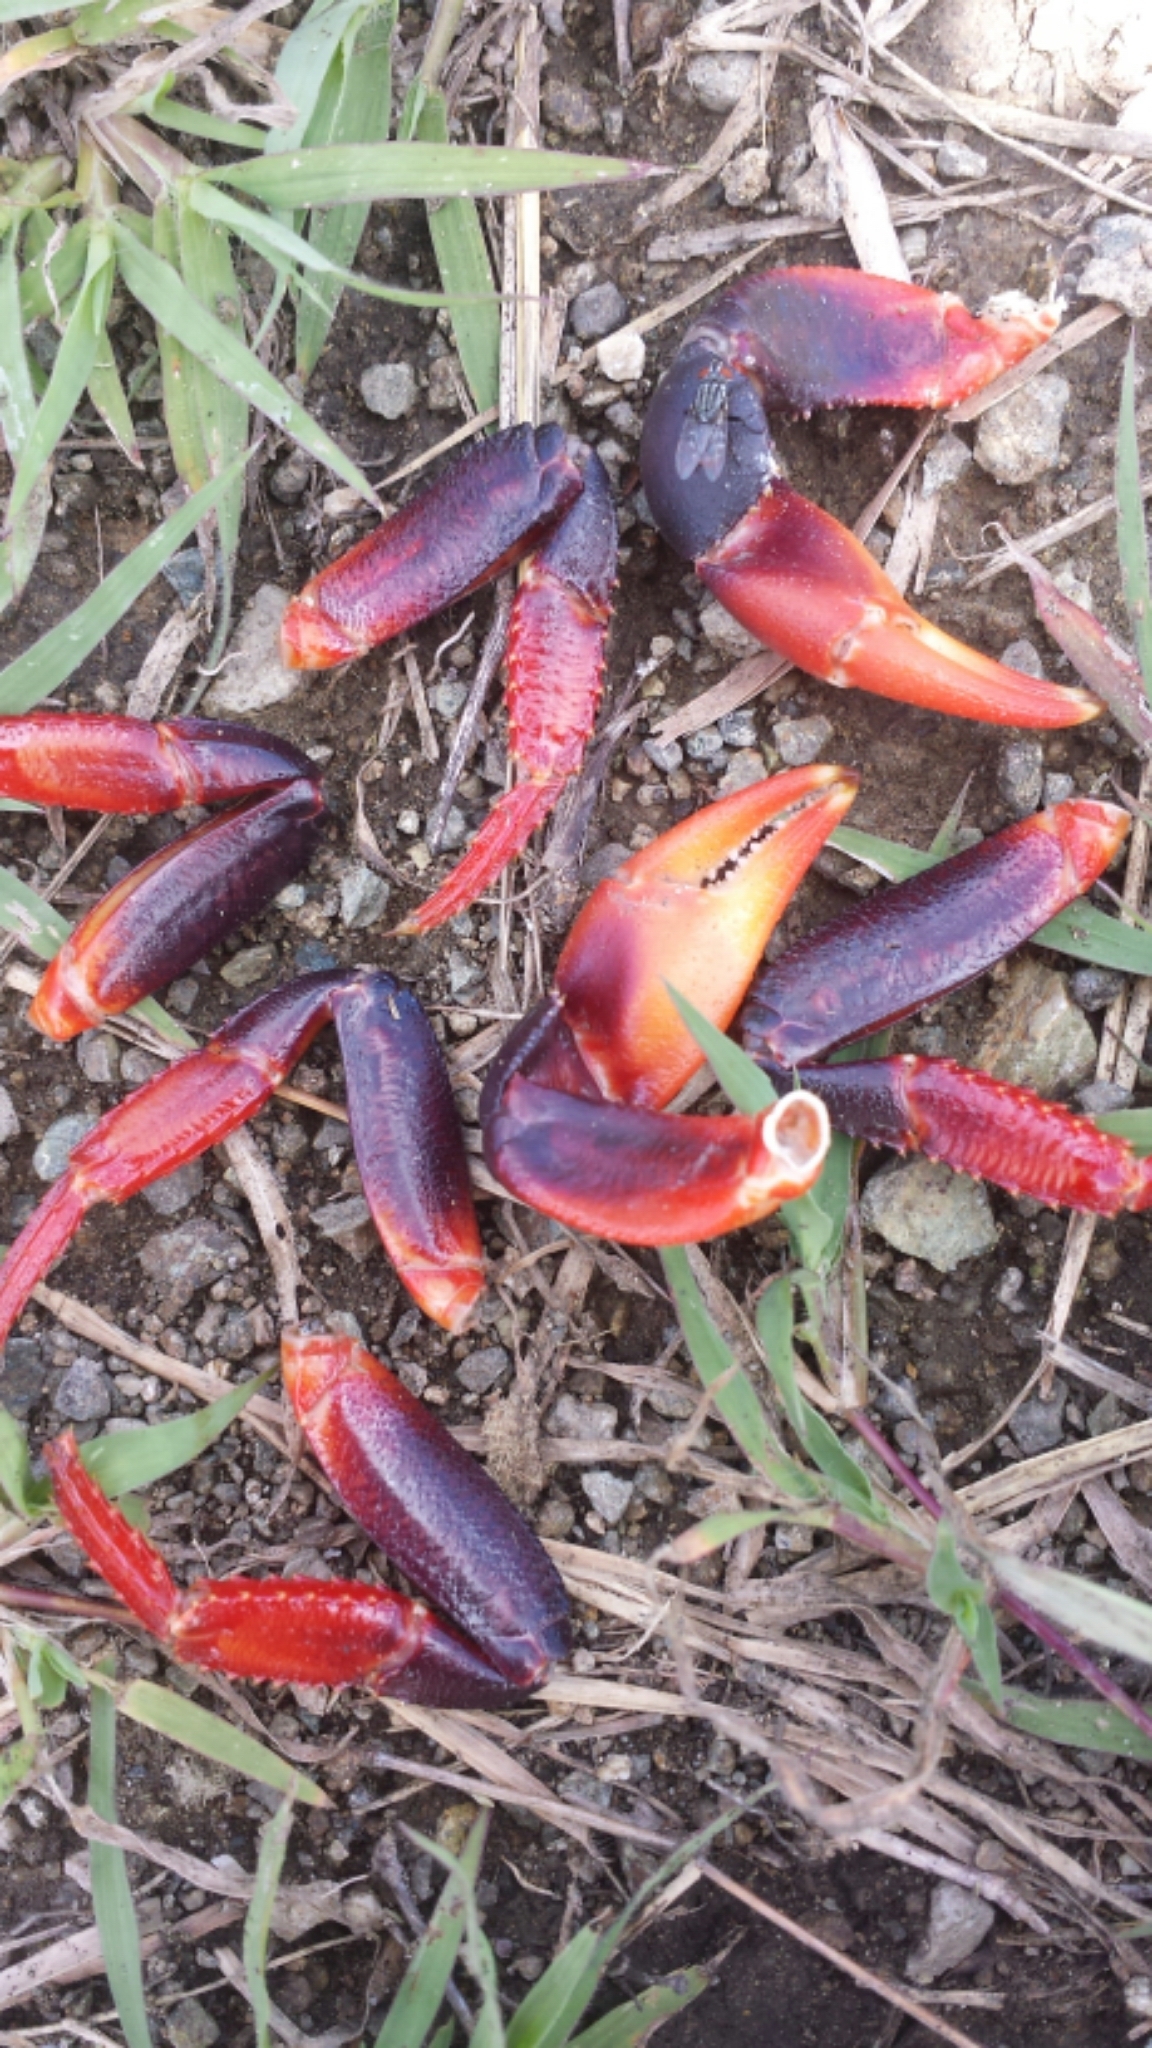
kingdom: Animalia
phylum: Arthropoda
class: Malacostraca
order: Decapoda
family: Gecarcinidae
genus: Gecarcinus
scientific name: Gecarcinus ruricola
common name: Black land crab
